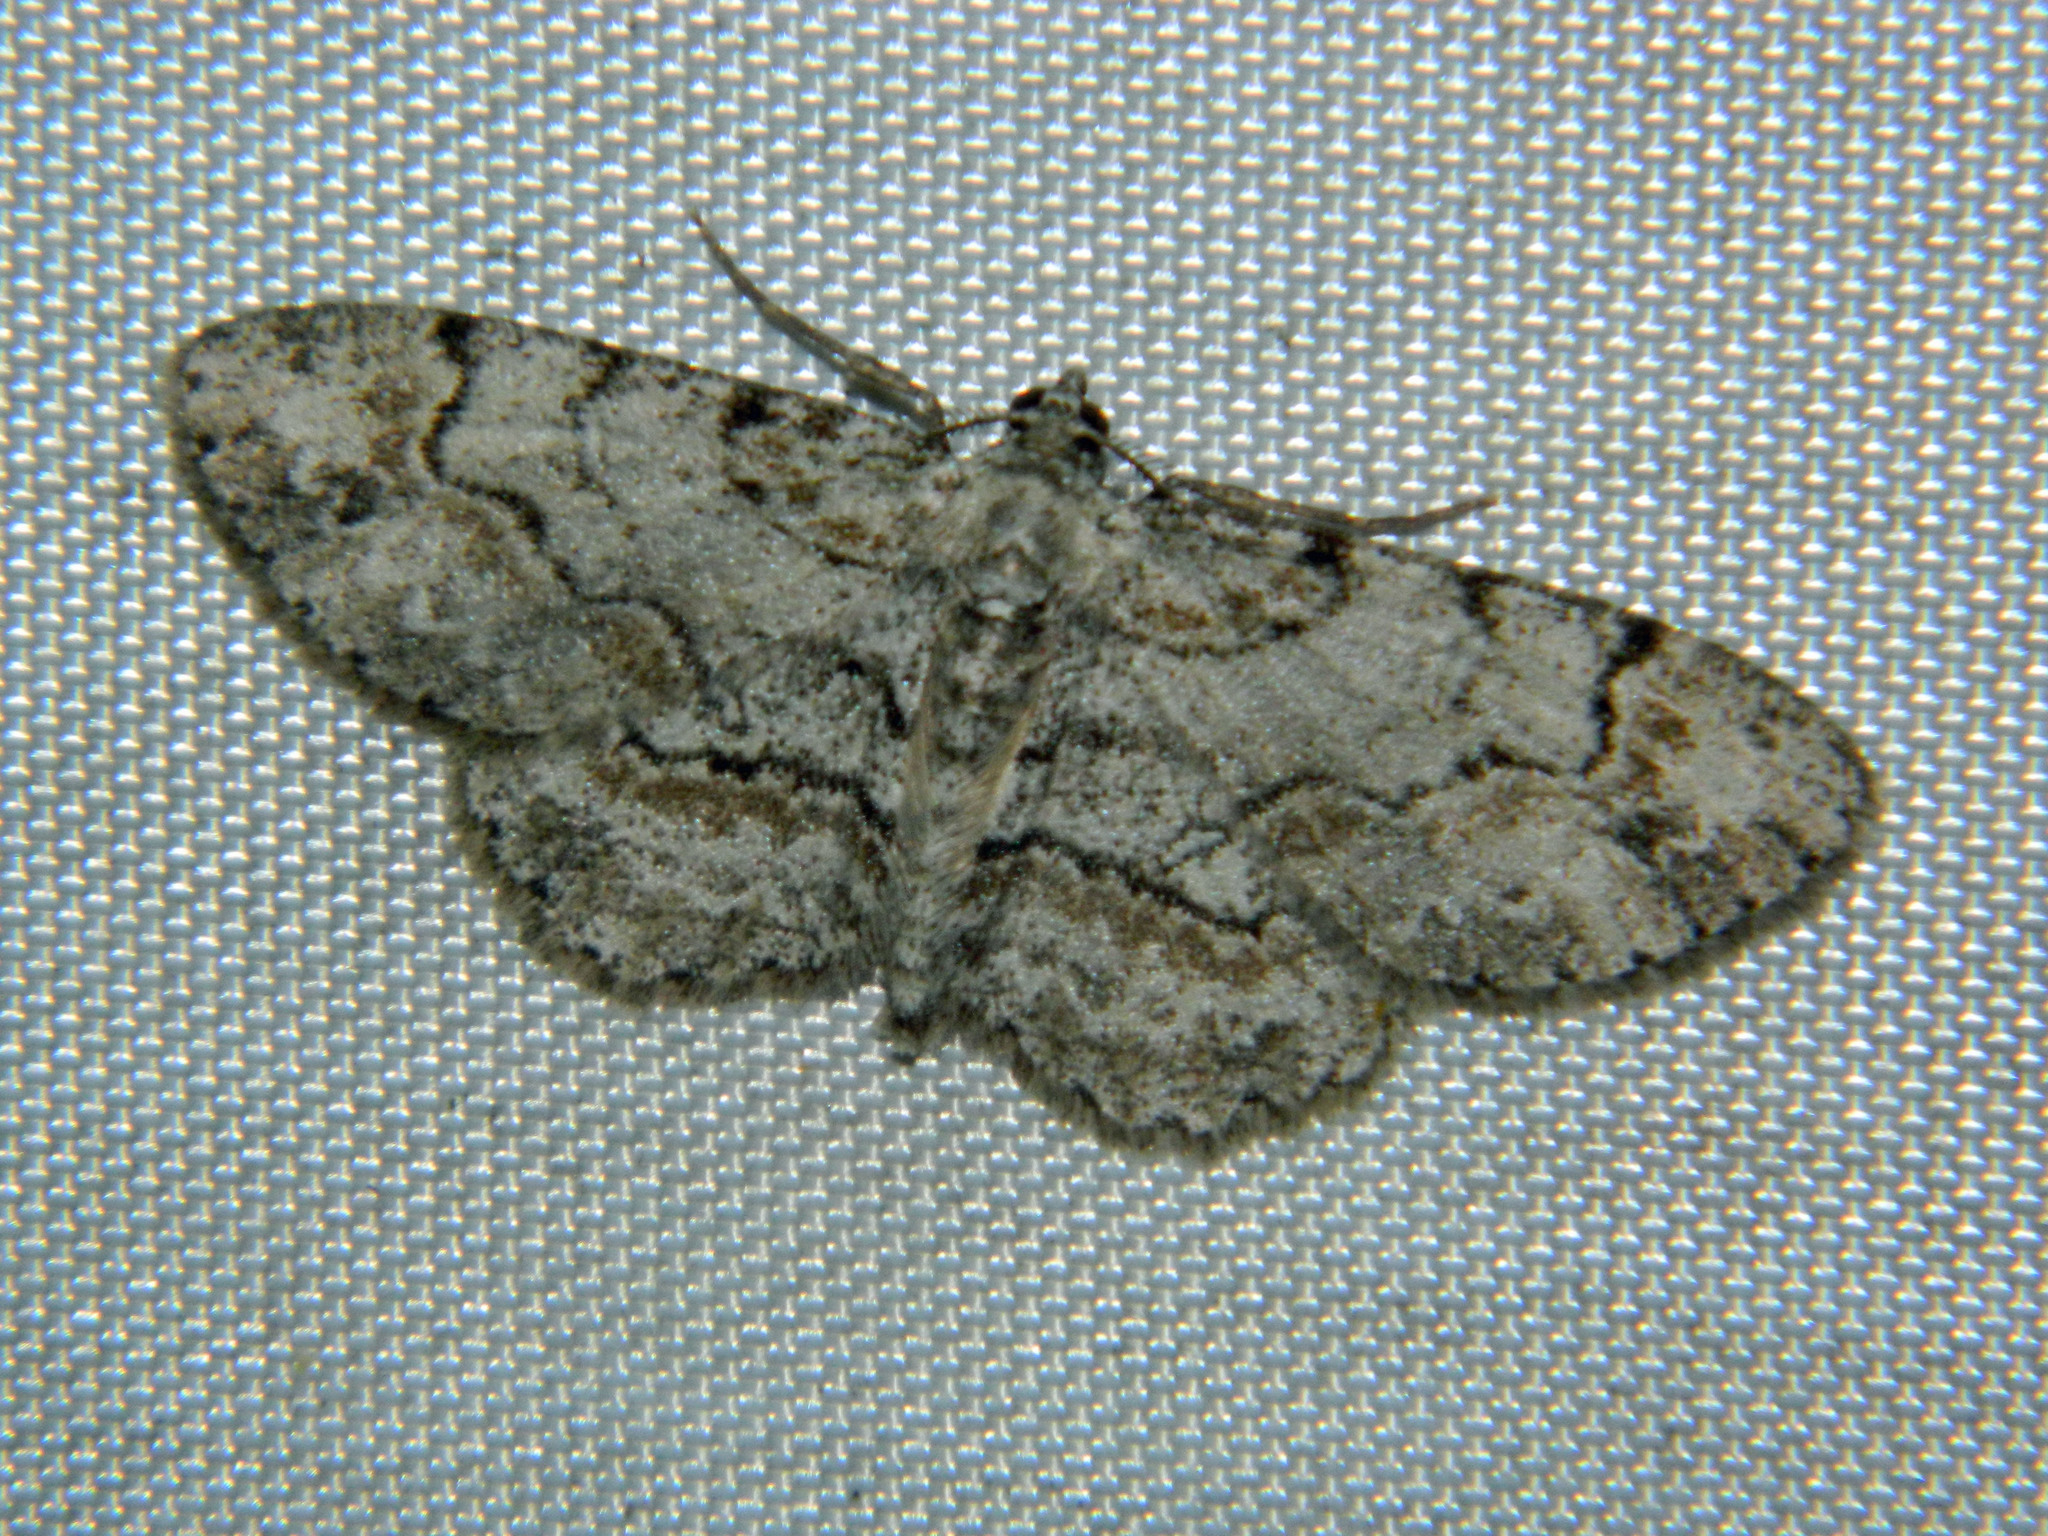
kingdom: Animalia
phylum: Arthropoda
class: Insecta
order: Lepidoptera
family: Geometridae
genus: Iridopsis
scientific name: Iridopsis ephyraria
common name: Pale-winged gray
